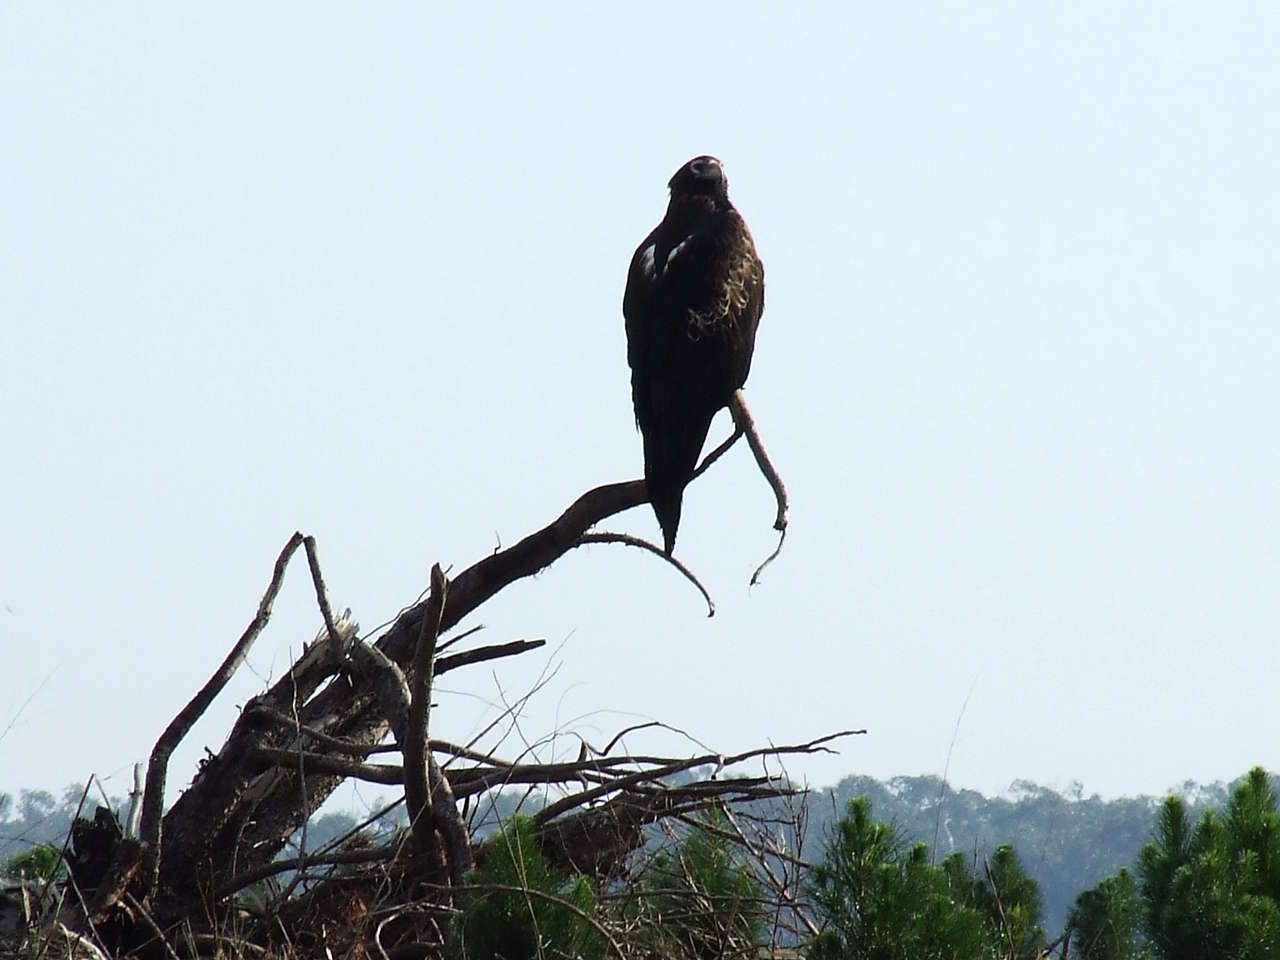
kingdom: Animalia
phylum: Chordata
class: Aves
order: Accipitriformes
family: Accipitridae
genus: Aquila
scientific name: Aquila audax
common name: Wedge-tailed eagle
